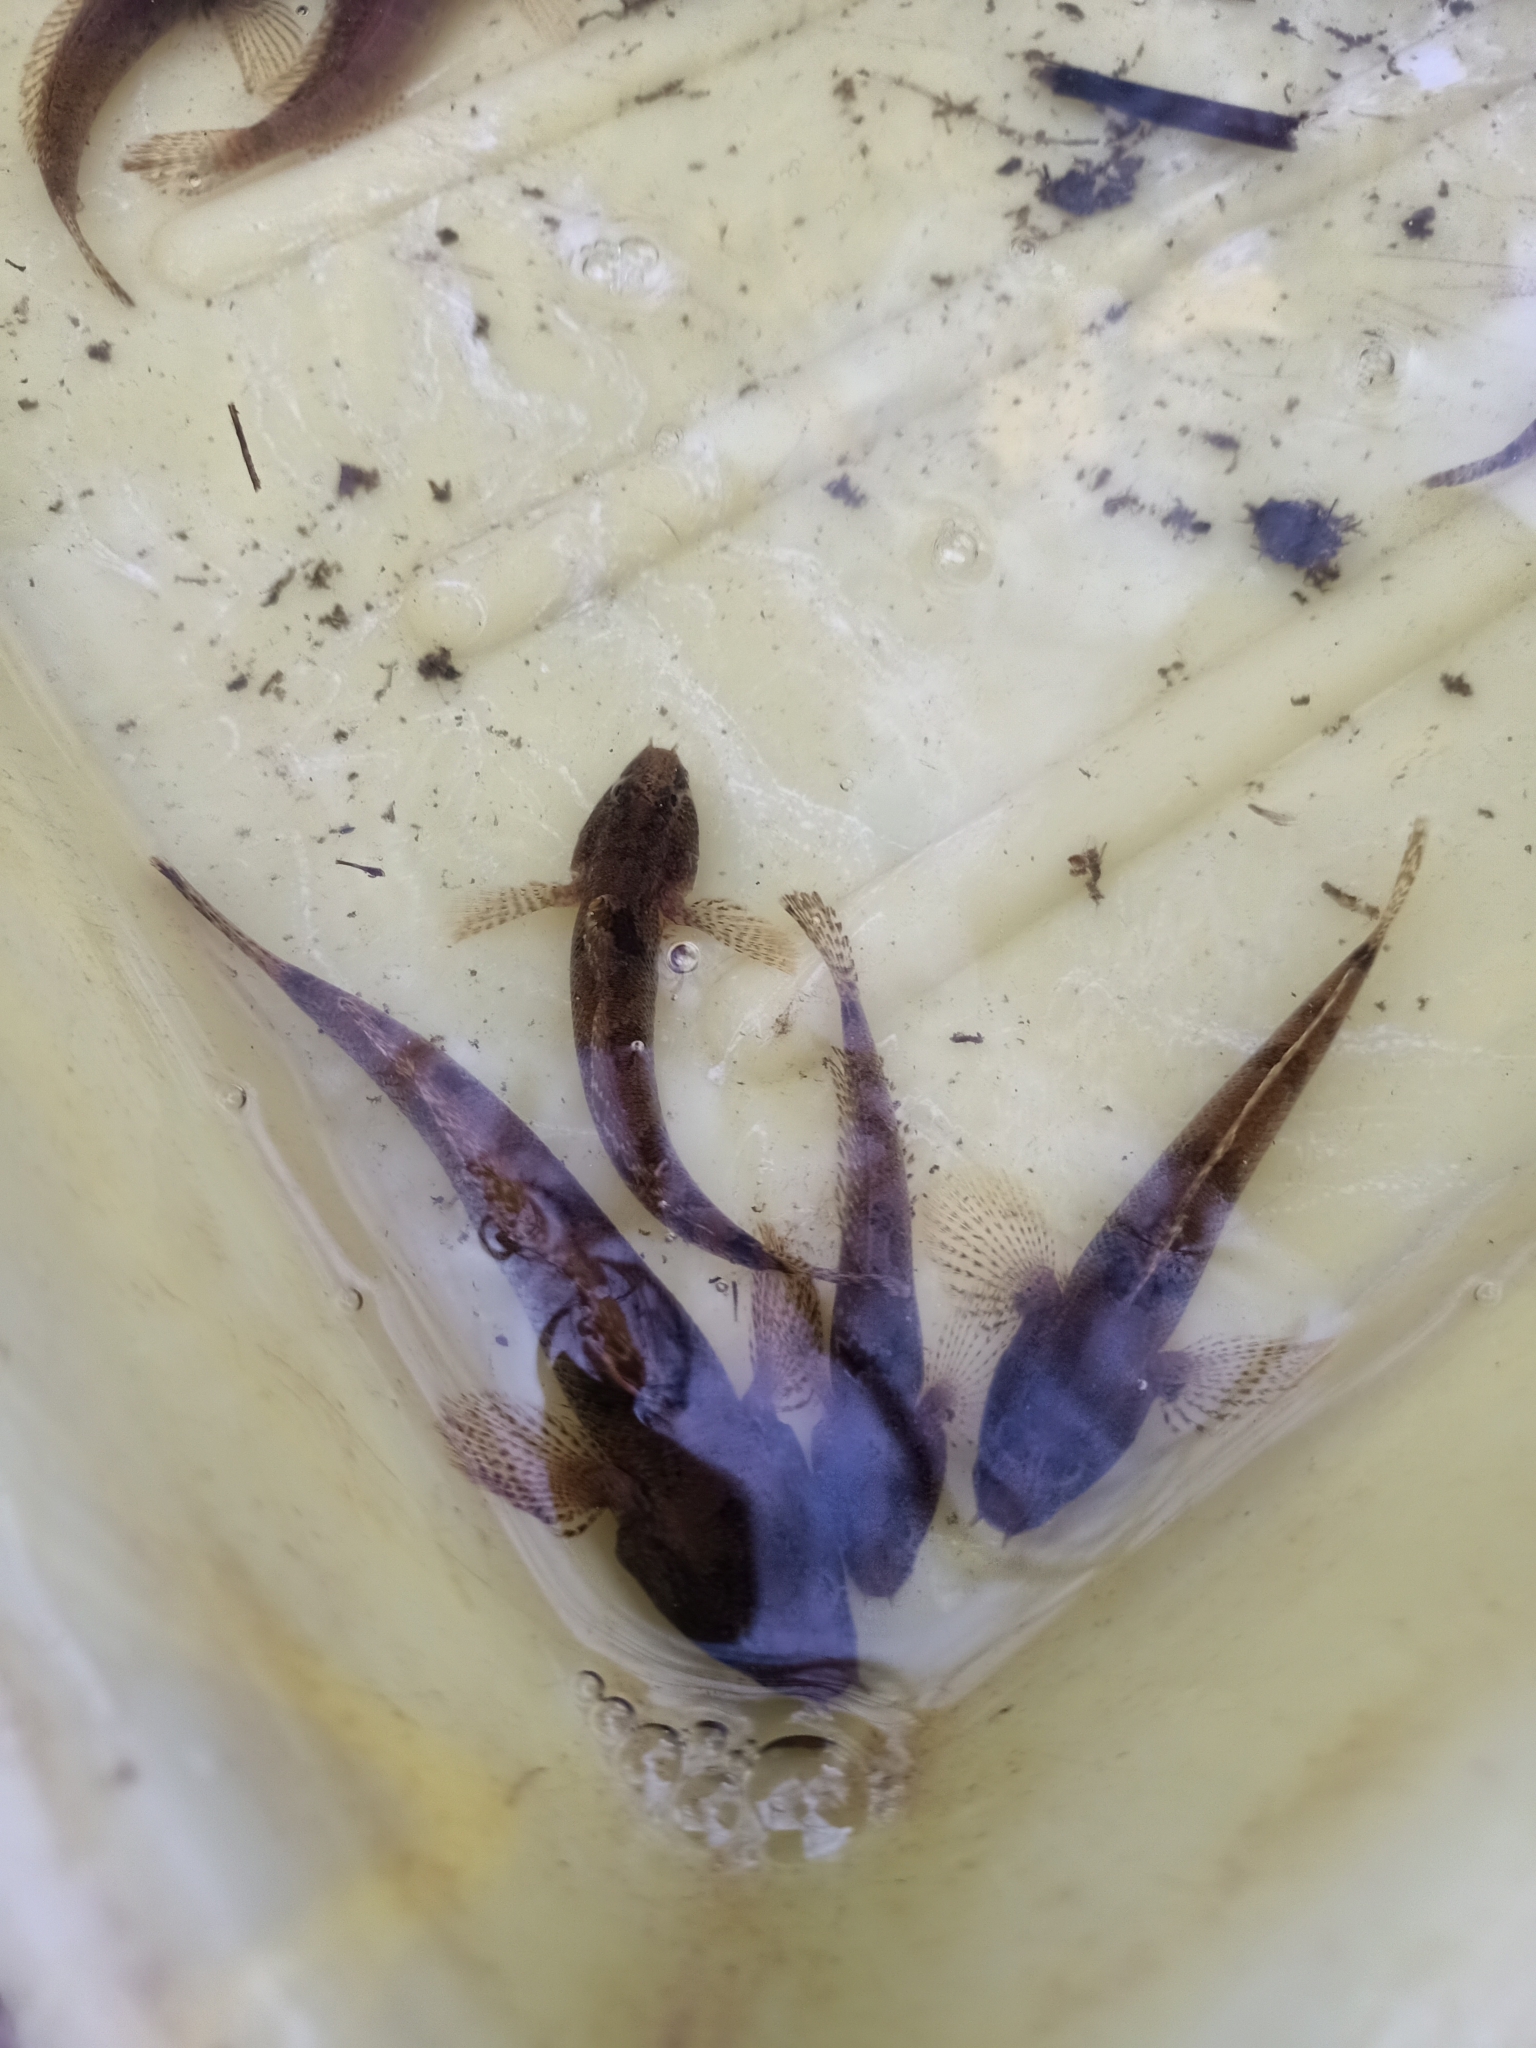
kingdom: Animalia
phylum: Chordata
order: Perciformes
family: Gobiidae
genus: Proterorhinus
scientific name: Proterorhinus semilunaris
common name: Western tubenose goby
